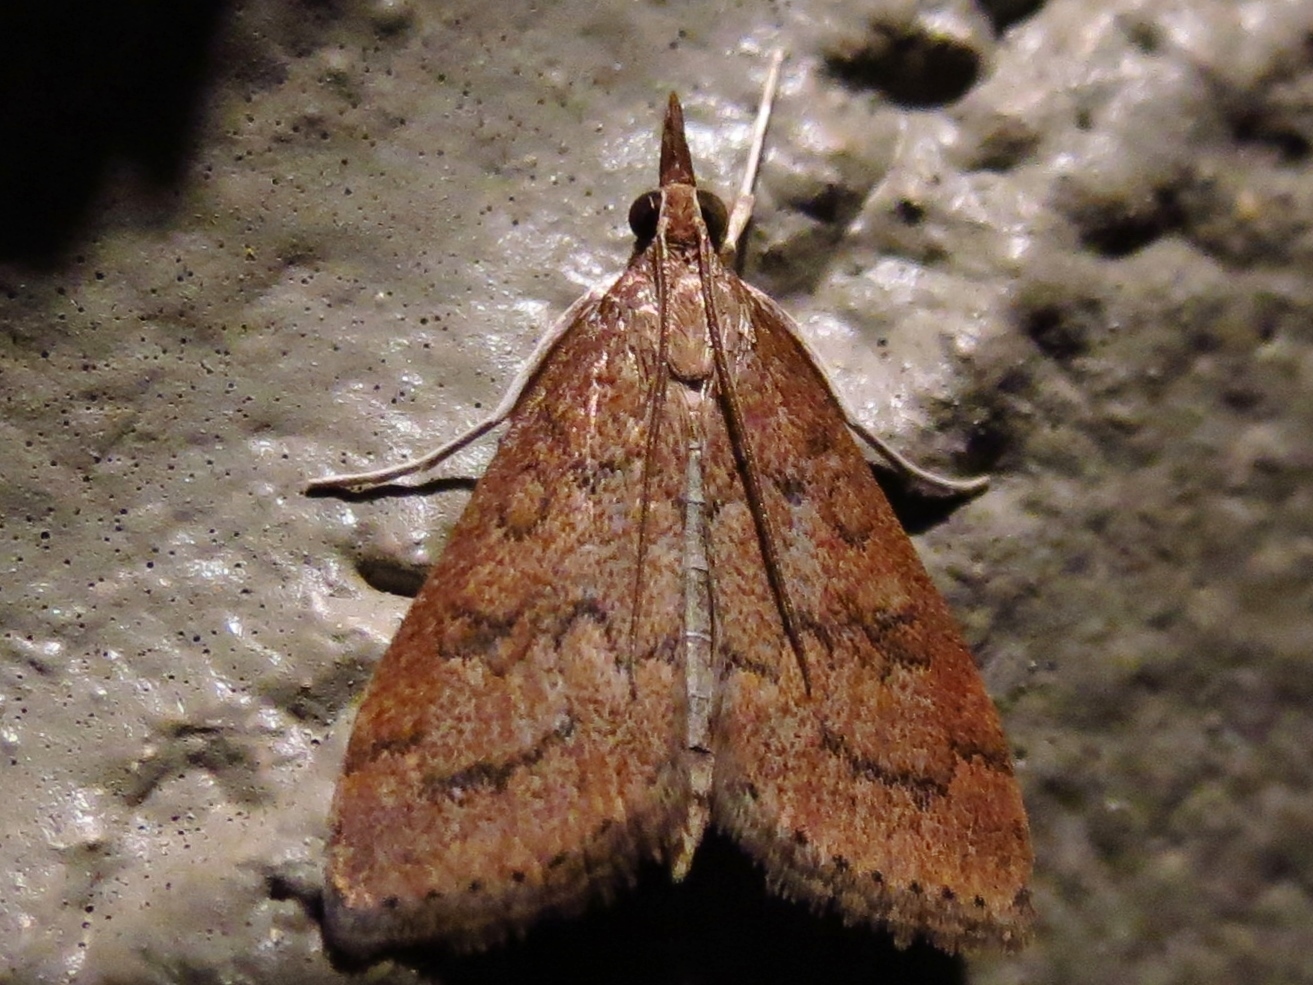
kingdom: Animalia
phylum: Arthropoda
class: Insecta
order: Lepidoptera
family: Crambidae
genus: Udea
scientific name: Udea rubigalis
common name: Celery leaftier moth
